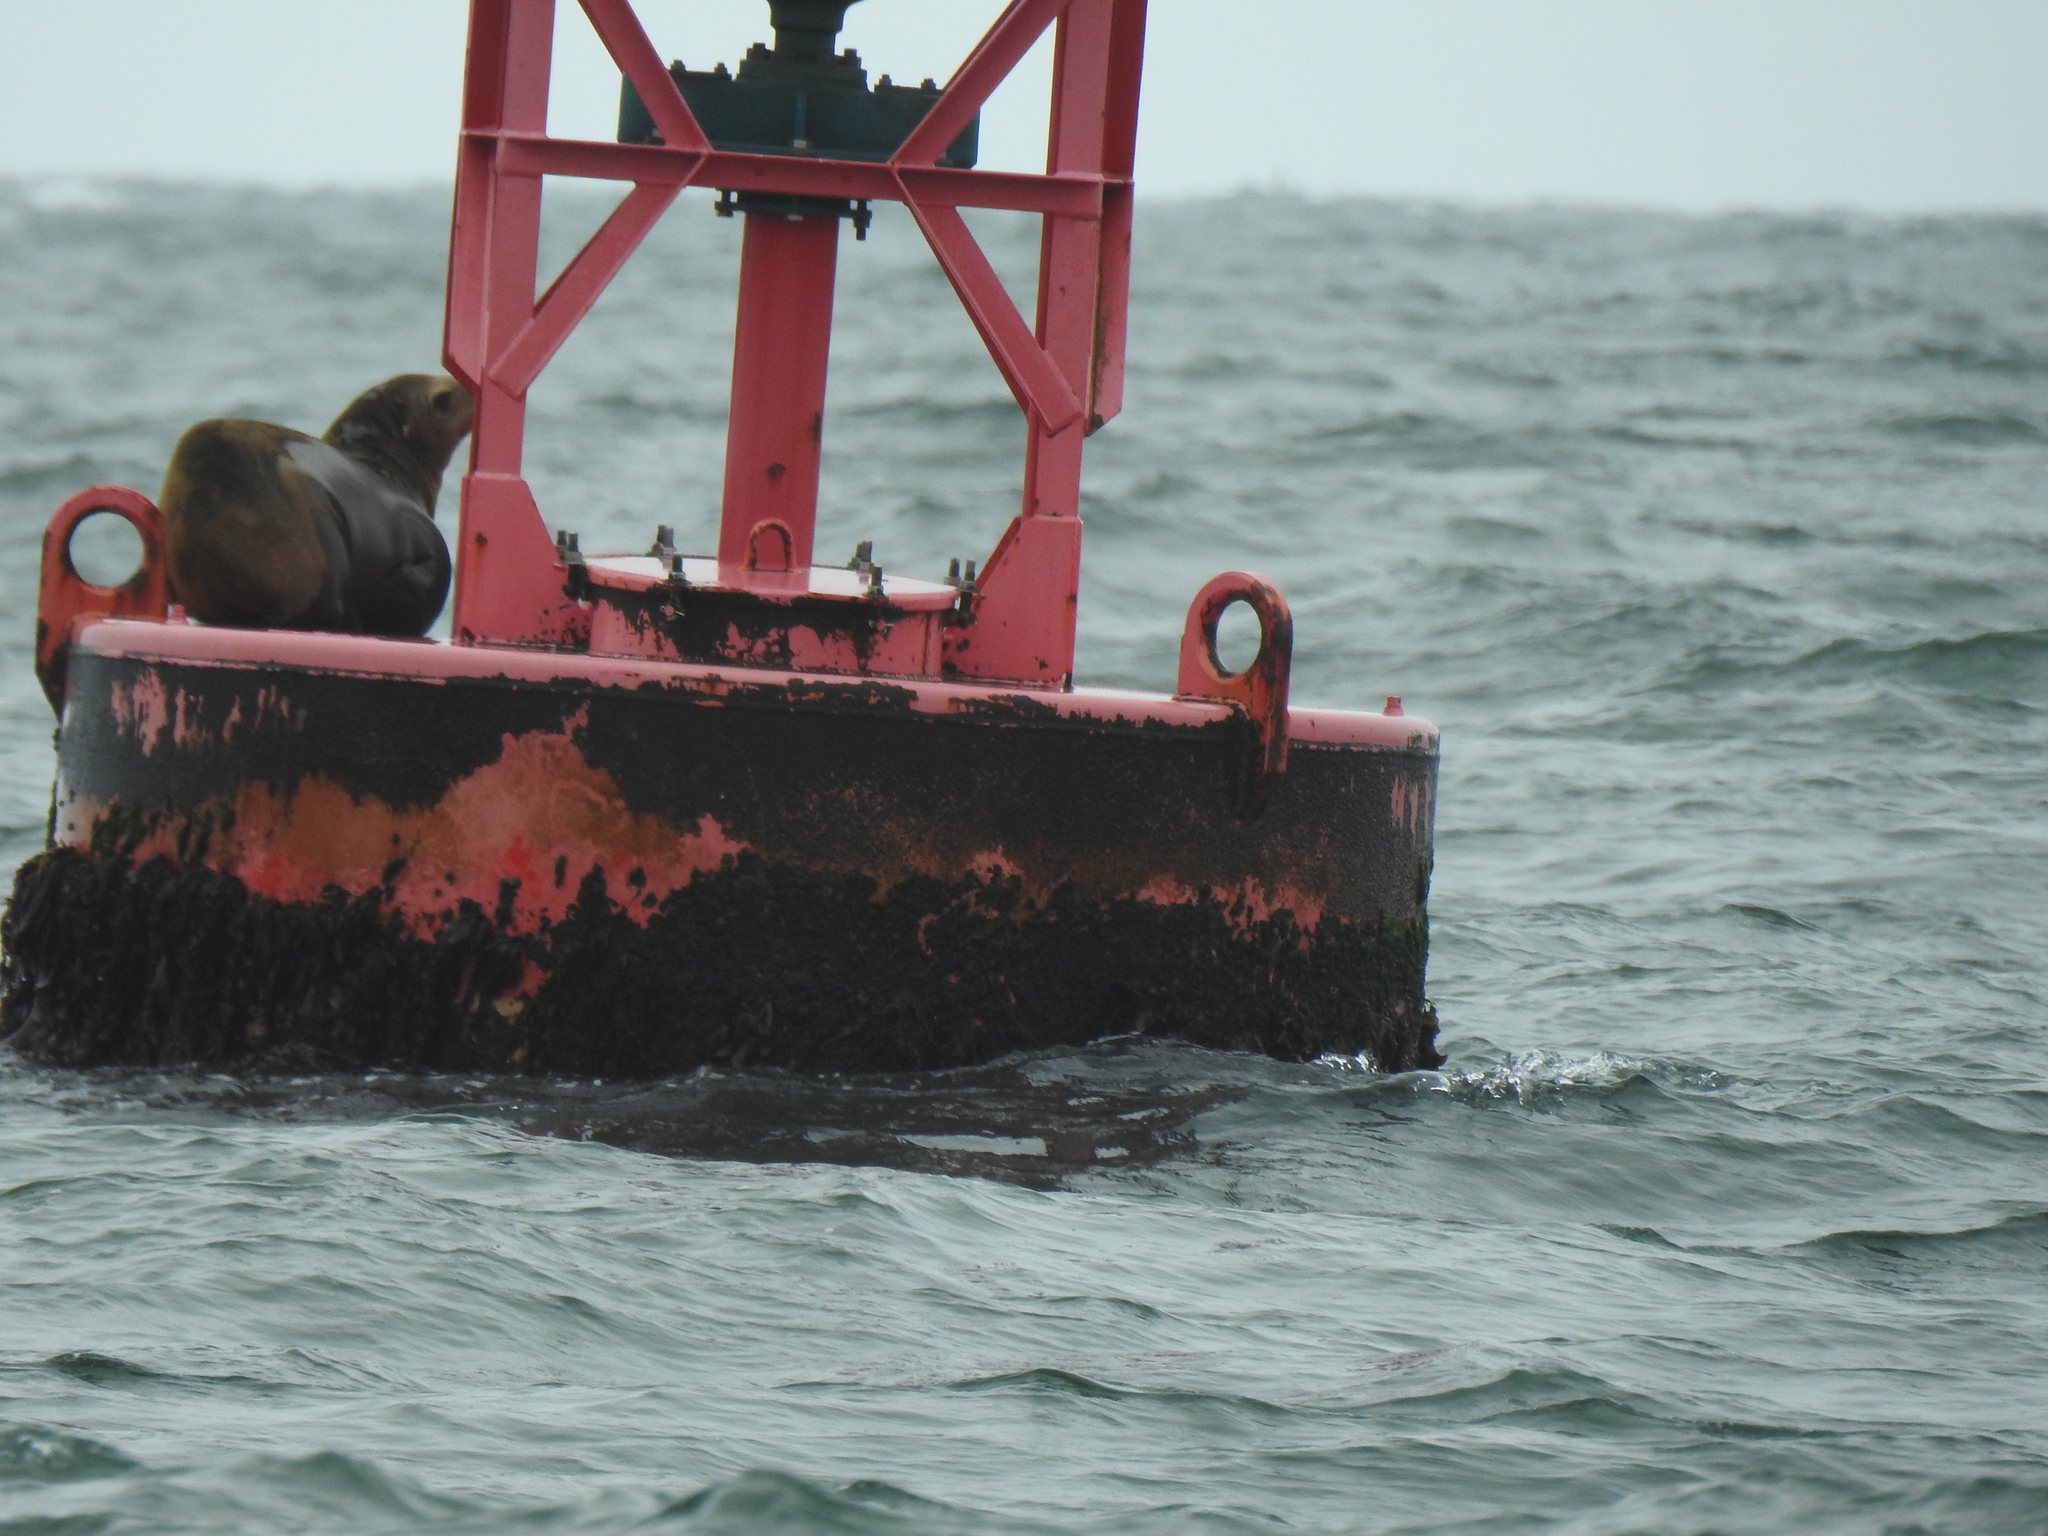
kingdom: Animalia
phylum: Chordata
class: Mammalia
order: Carnivora
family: Otariidae
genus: Zalophus
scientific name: Zalophus californianus
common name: California sea lion
